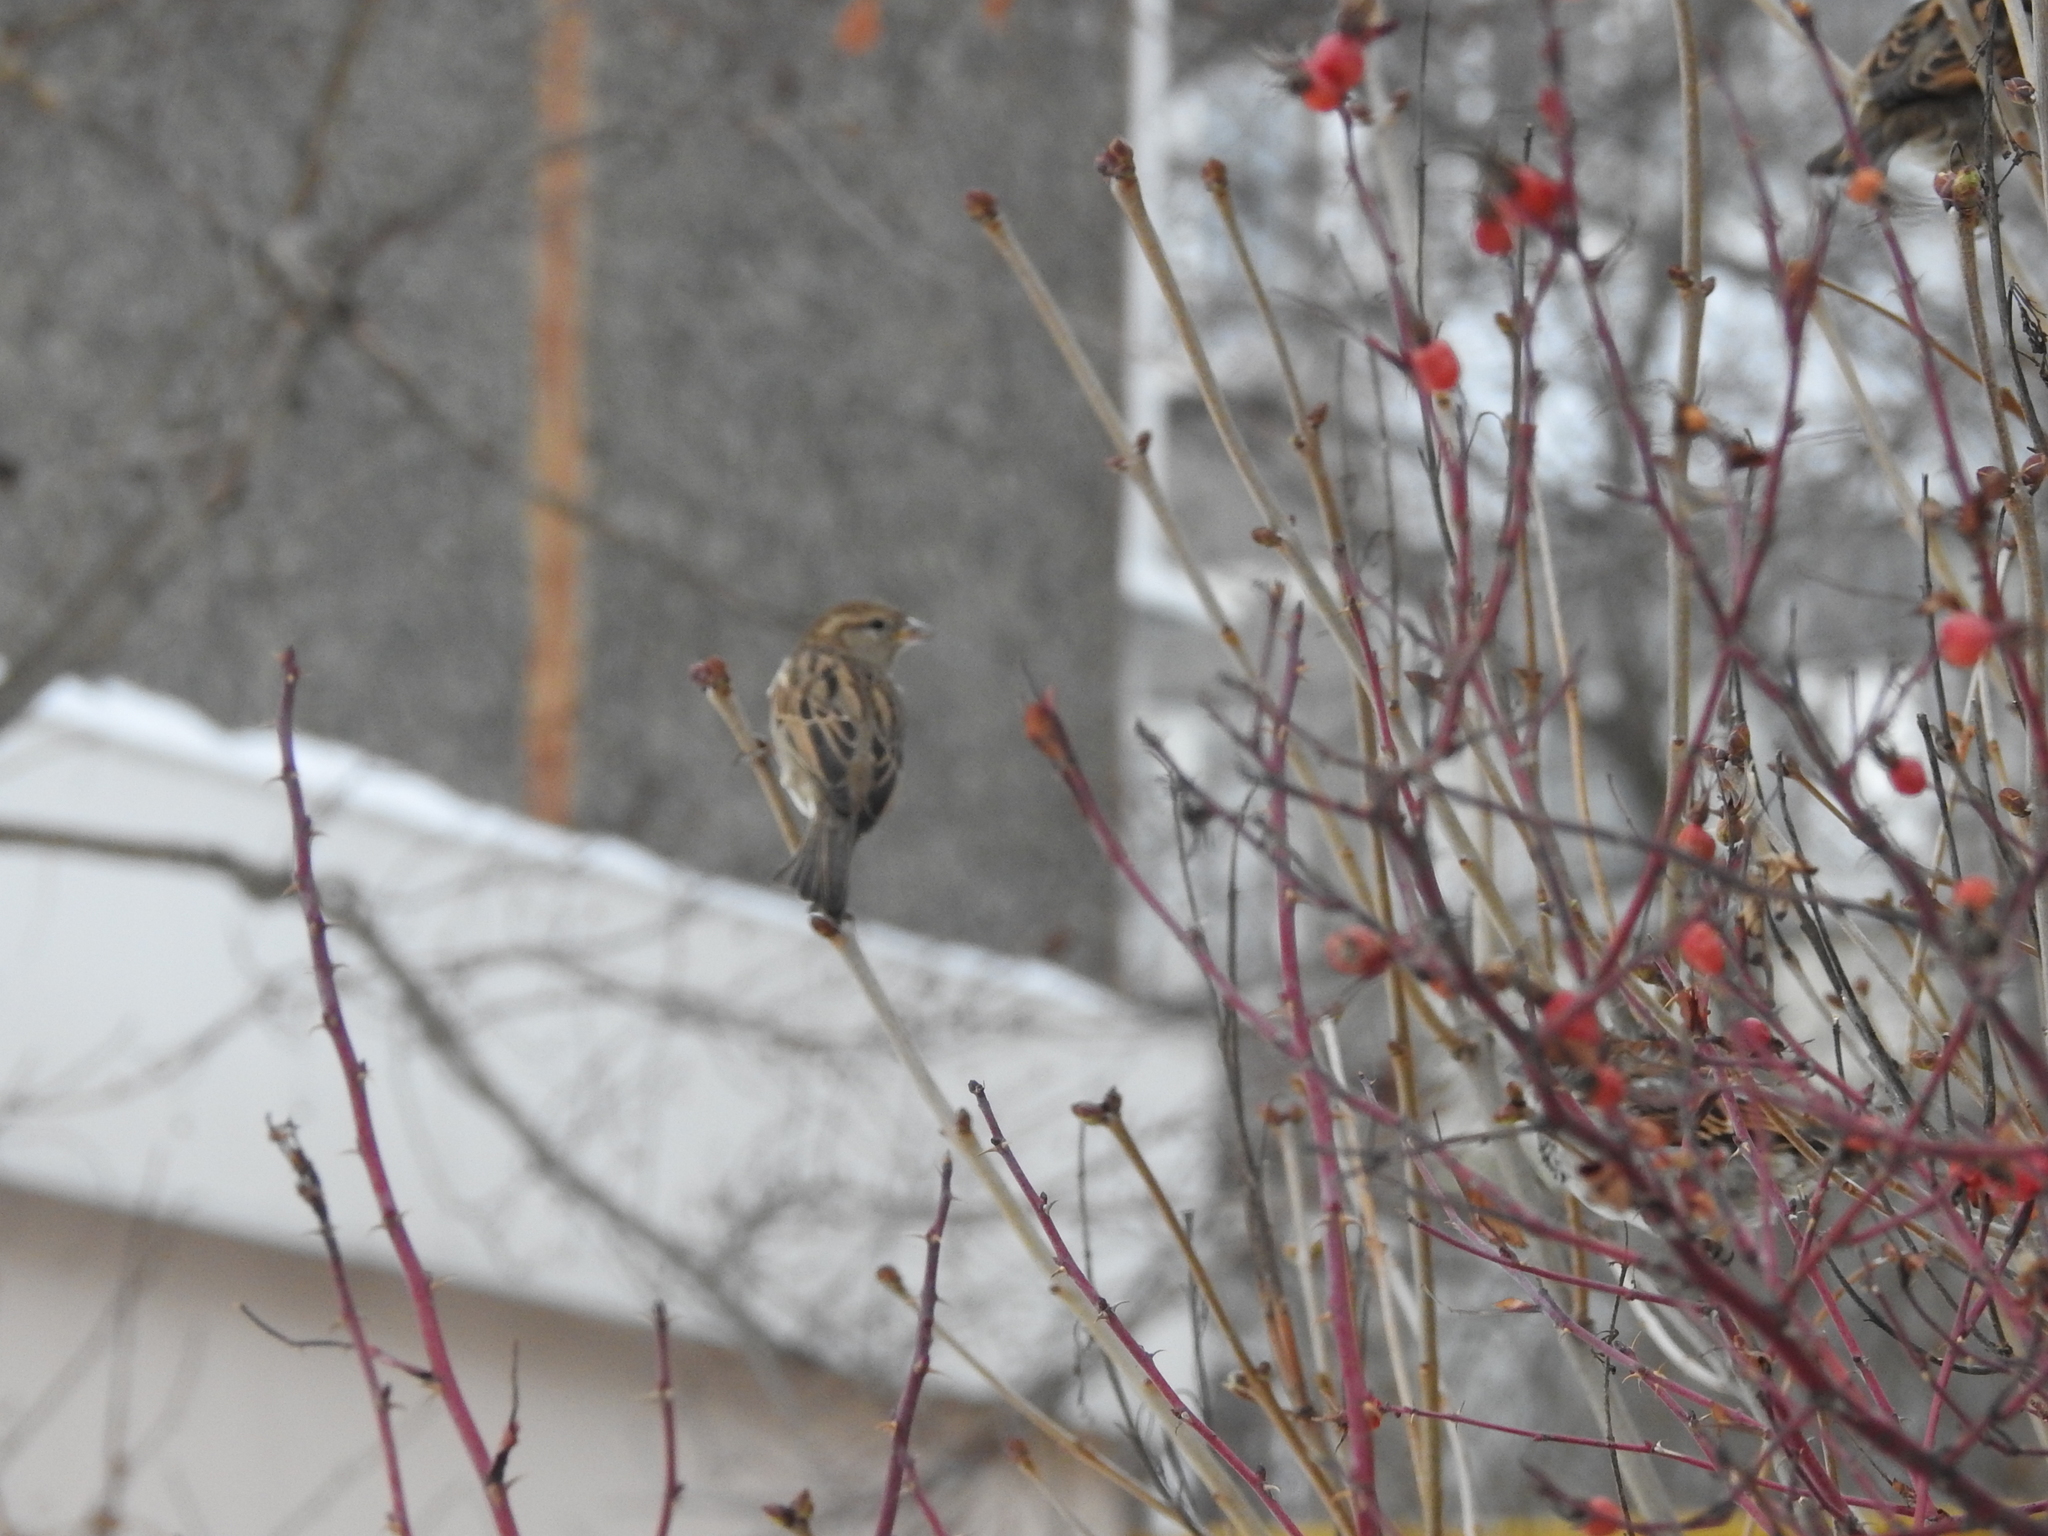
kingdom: Animalia
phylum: Chordata
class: Aves
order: Passeriformes
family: Passeridae
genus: Passer
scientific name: Passer domesticus
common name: House sparrow
